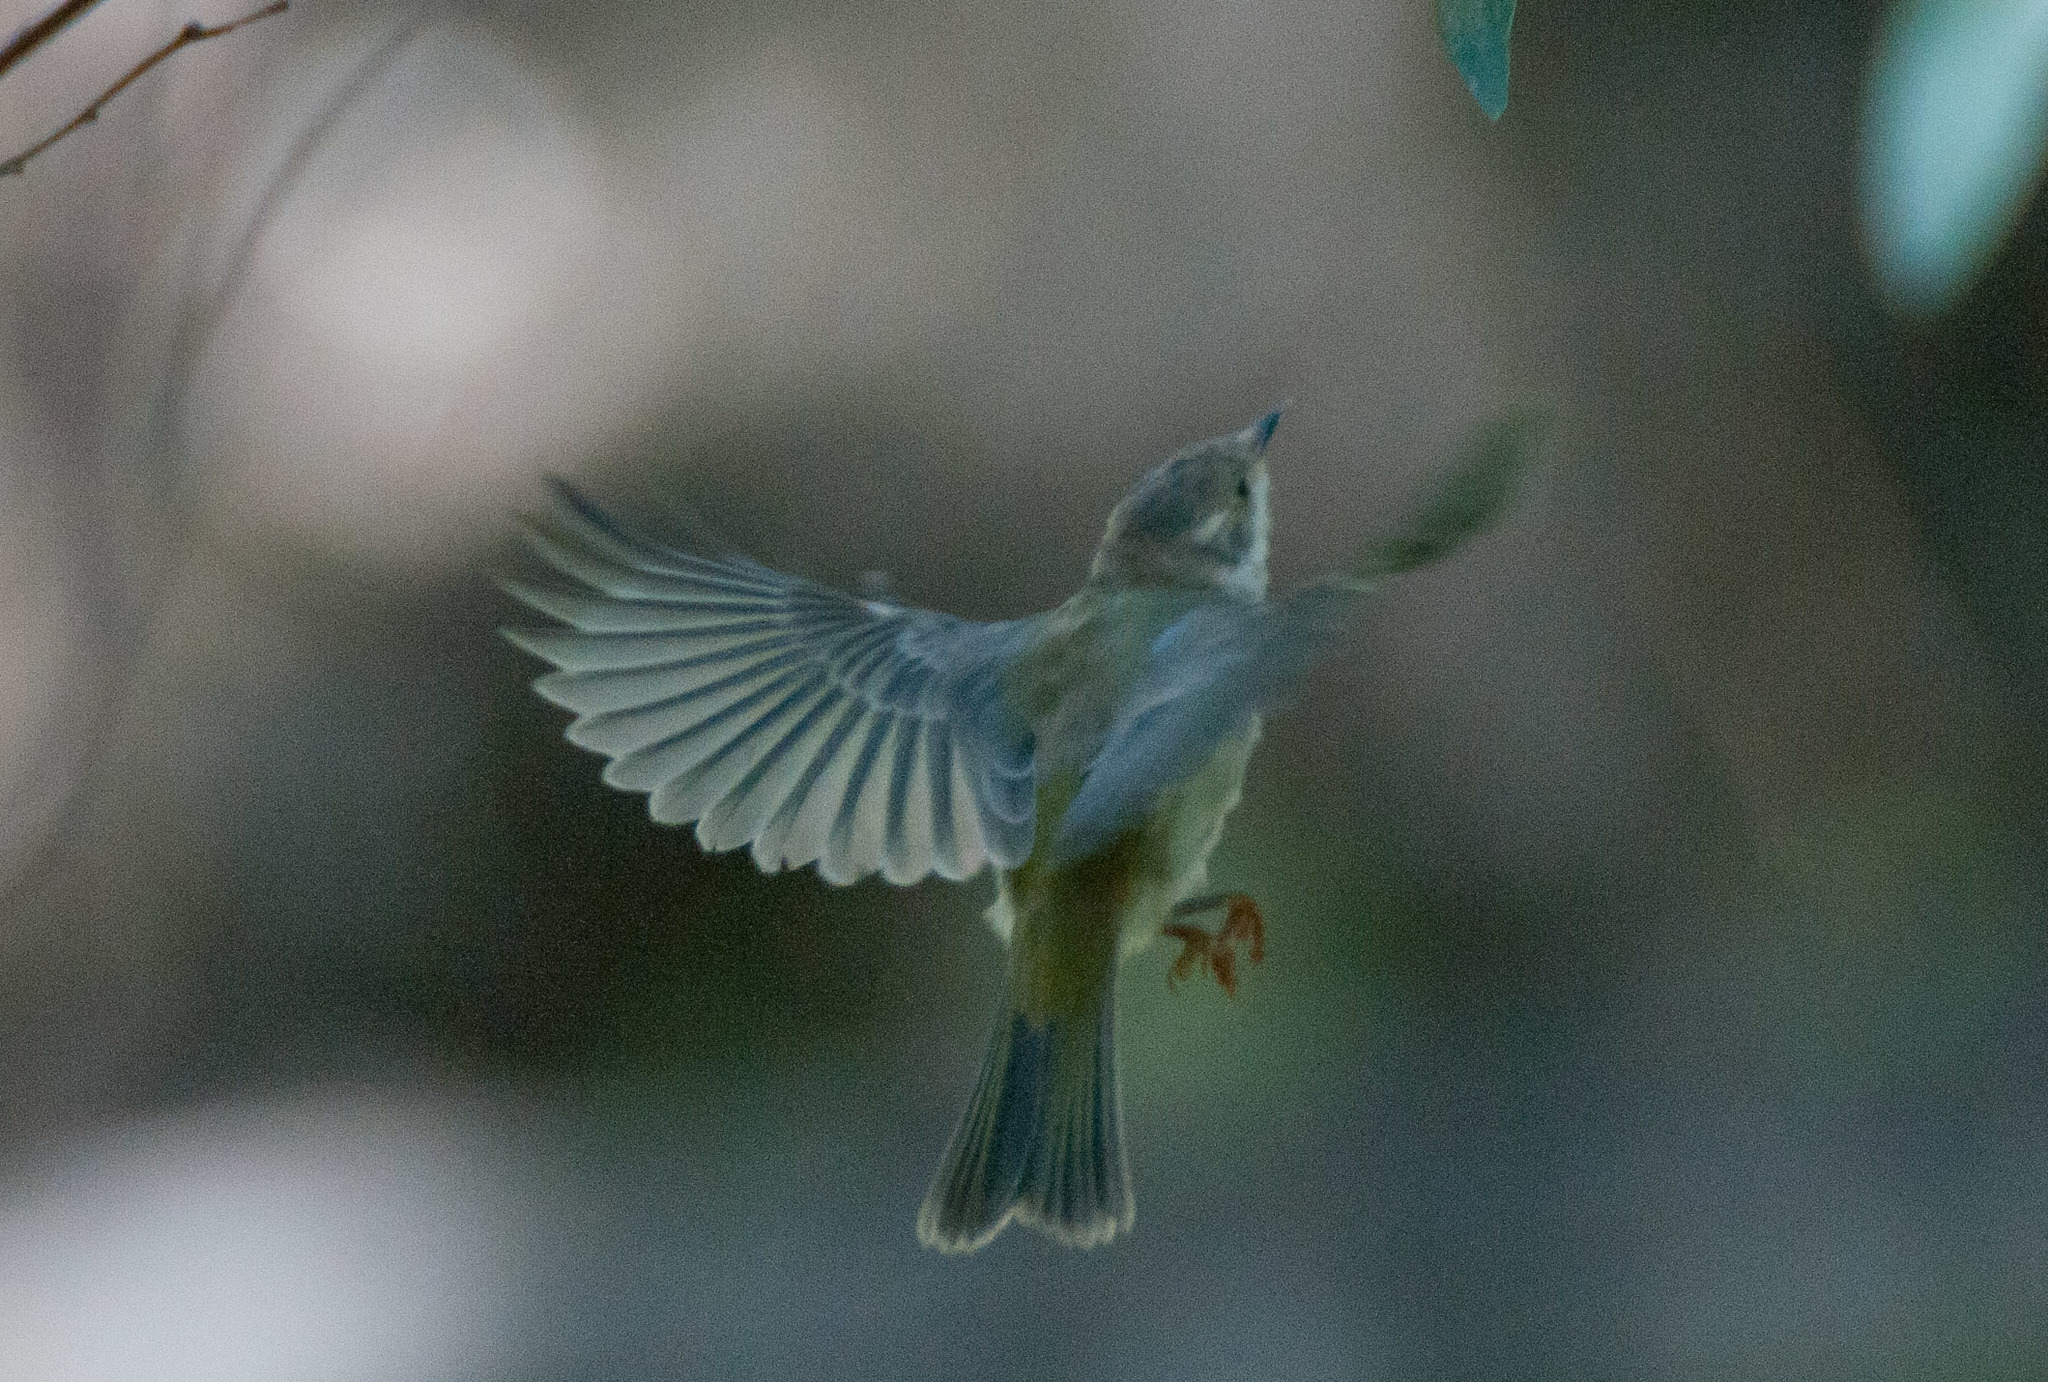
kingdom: Animalia
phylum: Chordata
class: Aves
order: Passeriformes
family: Meliphagidae
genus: Melithreptus
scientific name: Melithreptus brevirostris
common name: Brown-headed honeyeater
